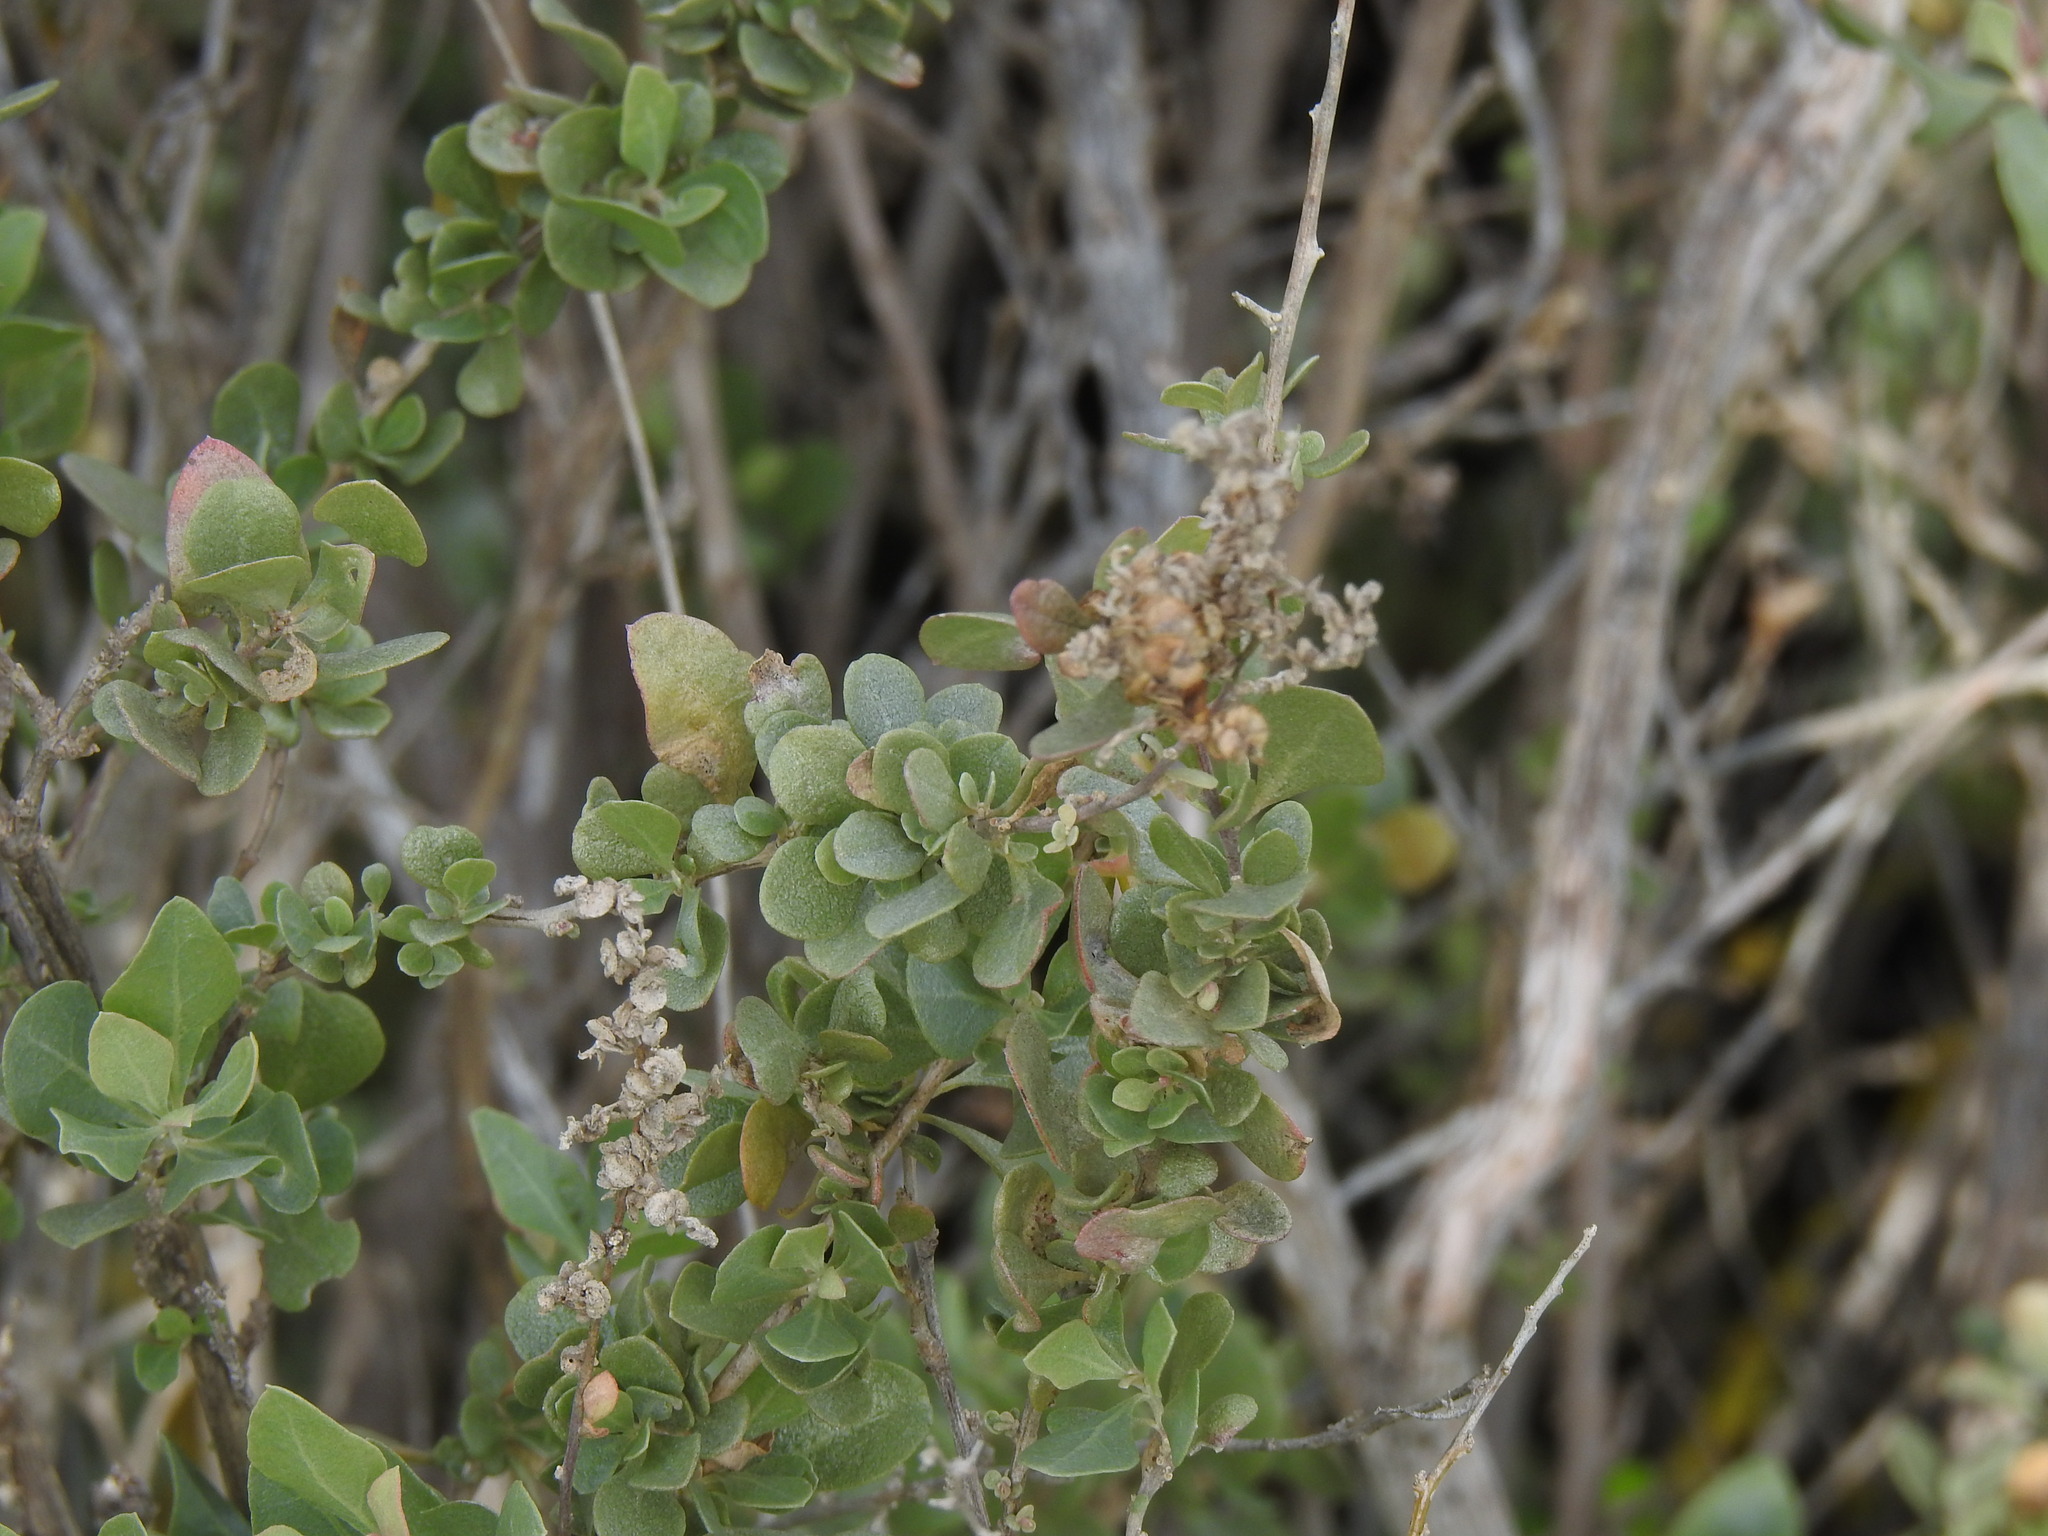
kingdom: Plantae
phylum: Tracheophyta
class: Magnoliopsida
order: Caryophyllales
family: Amaranthaceae
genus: Atriplex
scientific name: Atriplex halimus
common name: Shrubby orache
